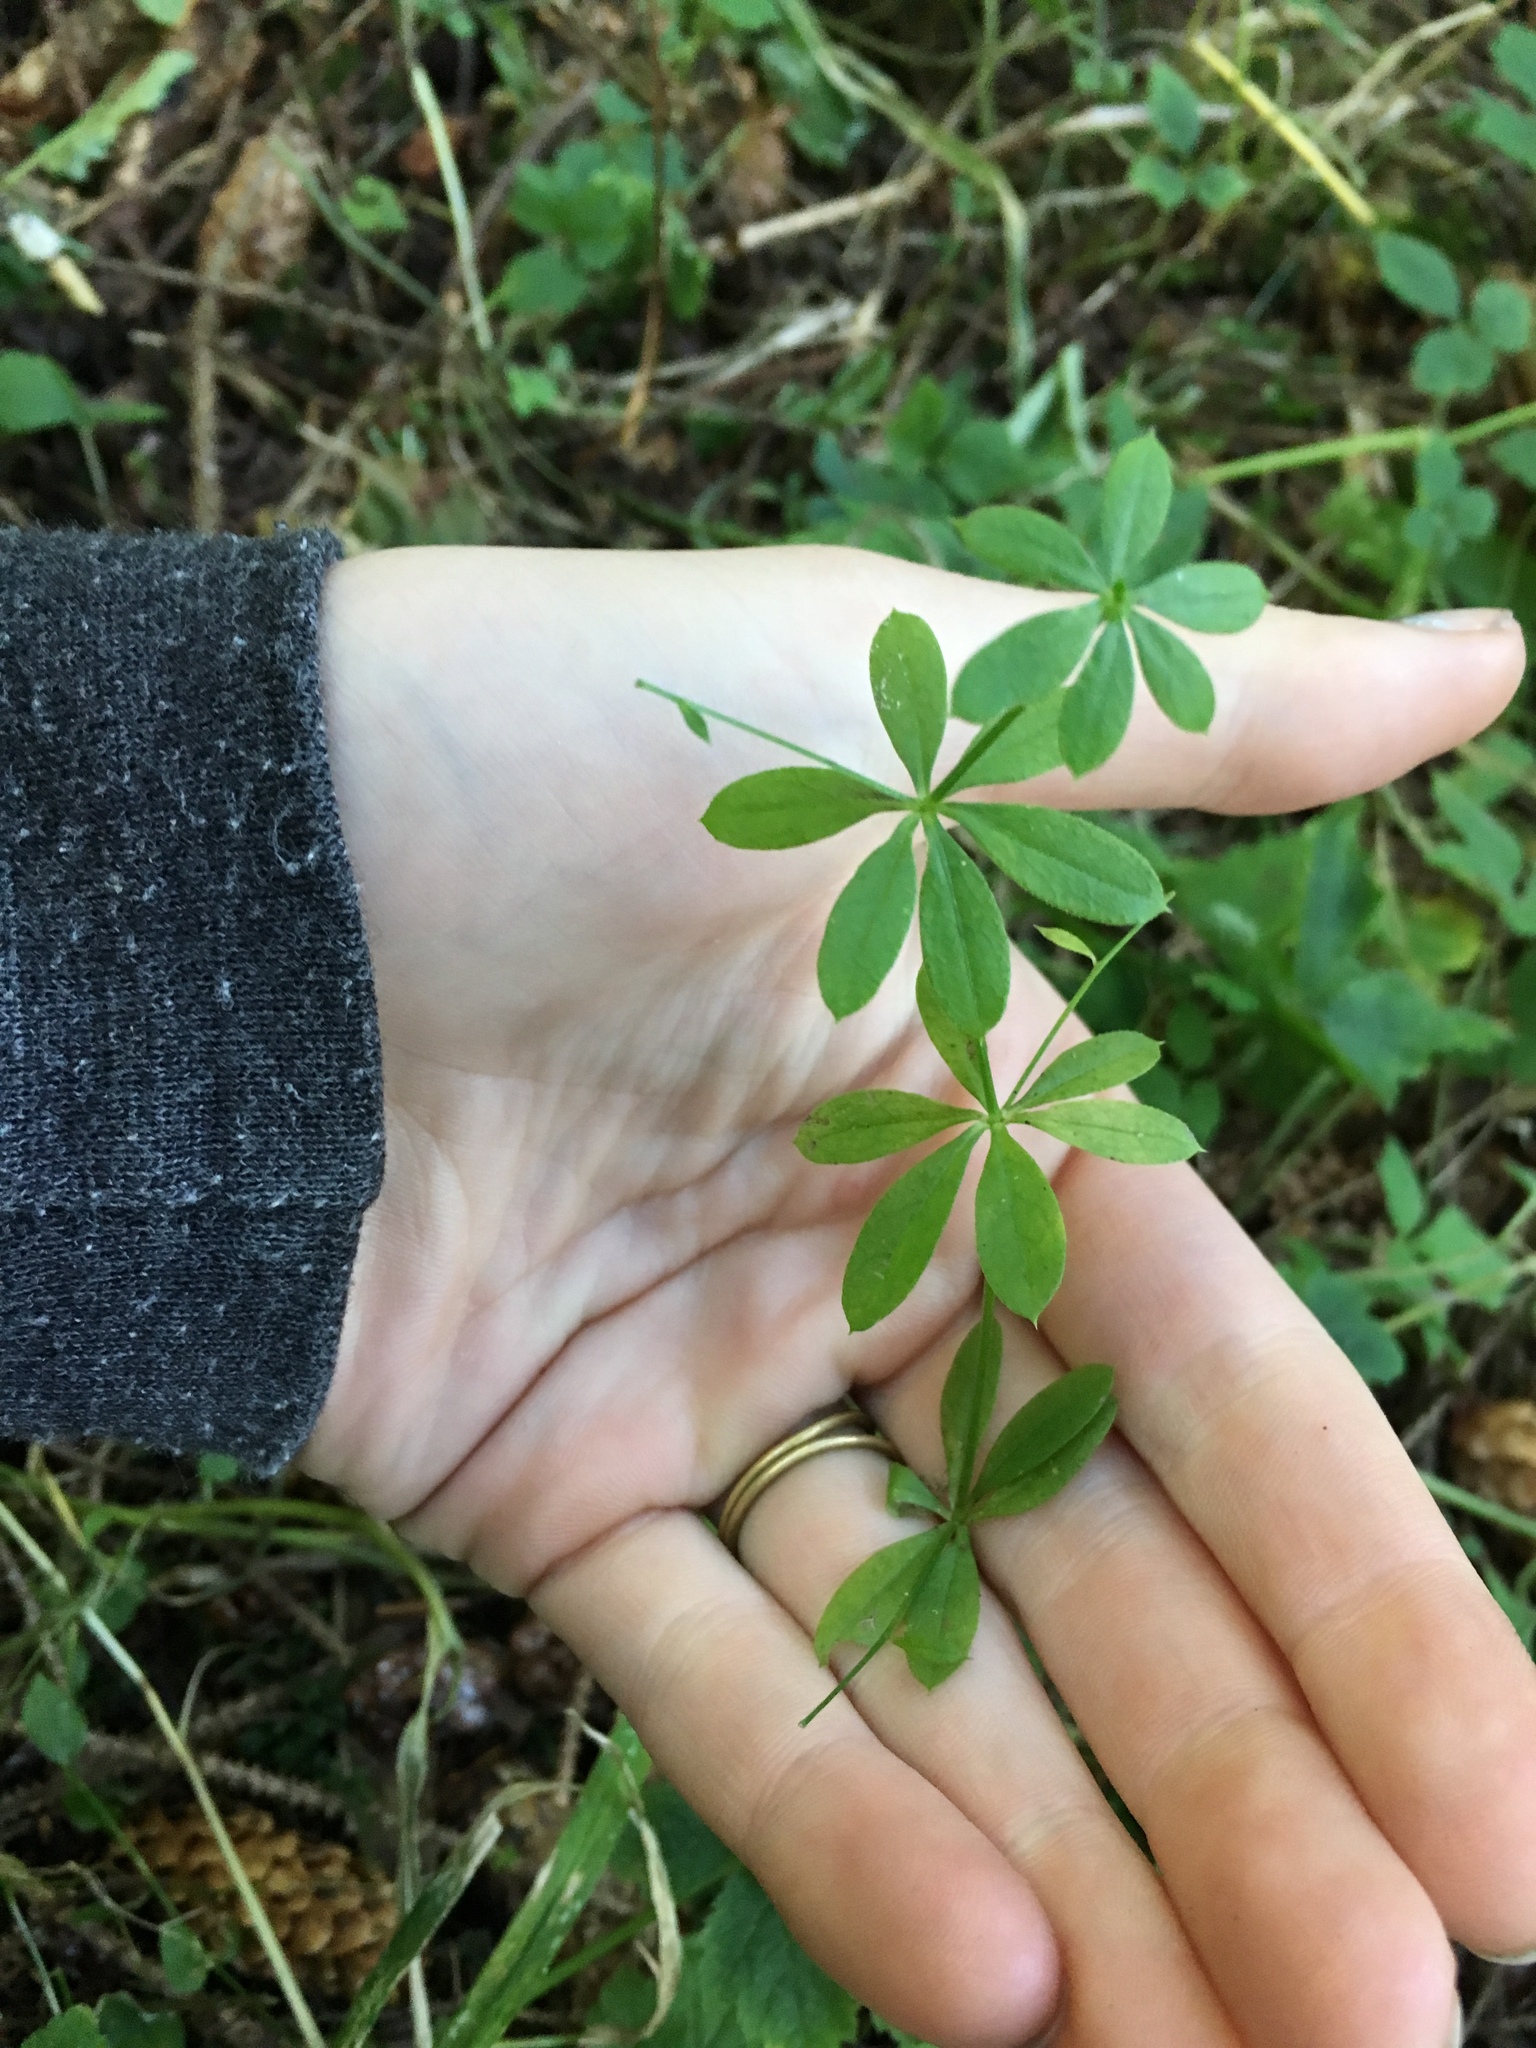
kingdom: Plantae
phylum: Tracheophyta
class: Magnoliopsida
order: Gentianales
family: Rubiaceae
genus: Galium
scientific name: Galium triflorum
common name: Fragrant bedstraw
